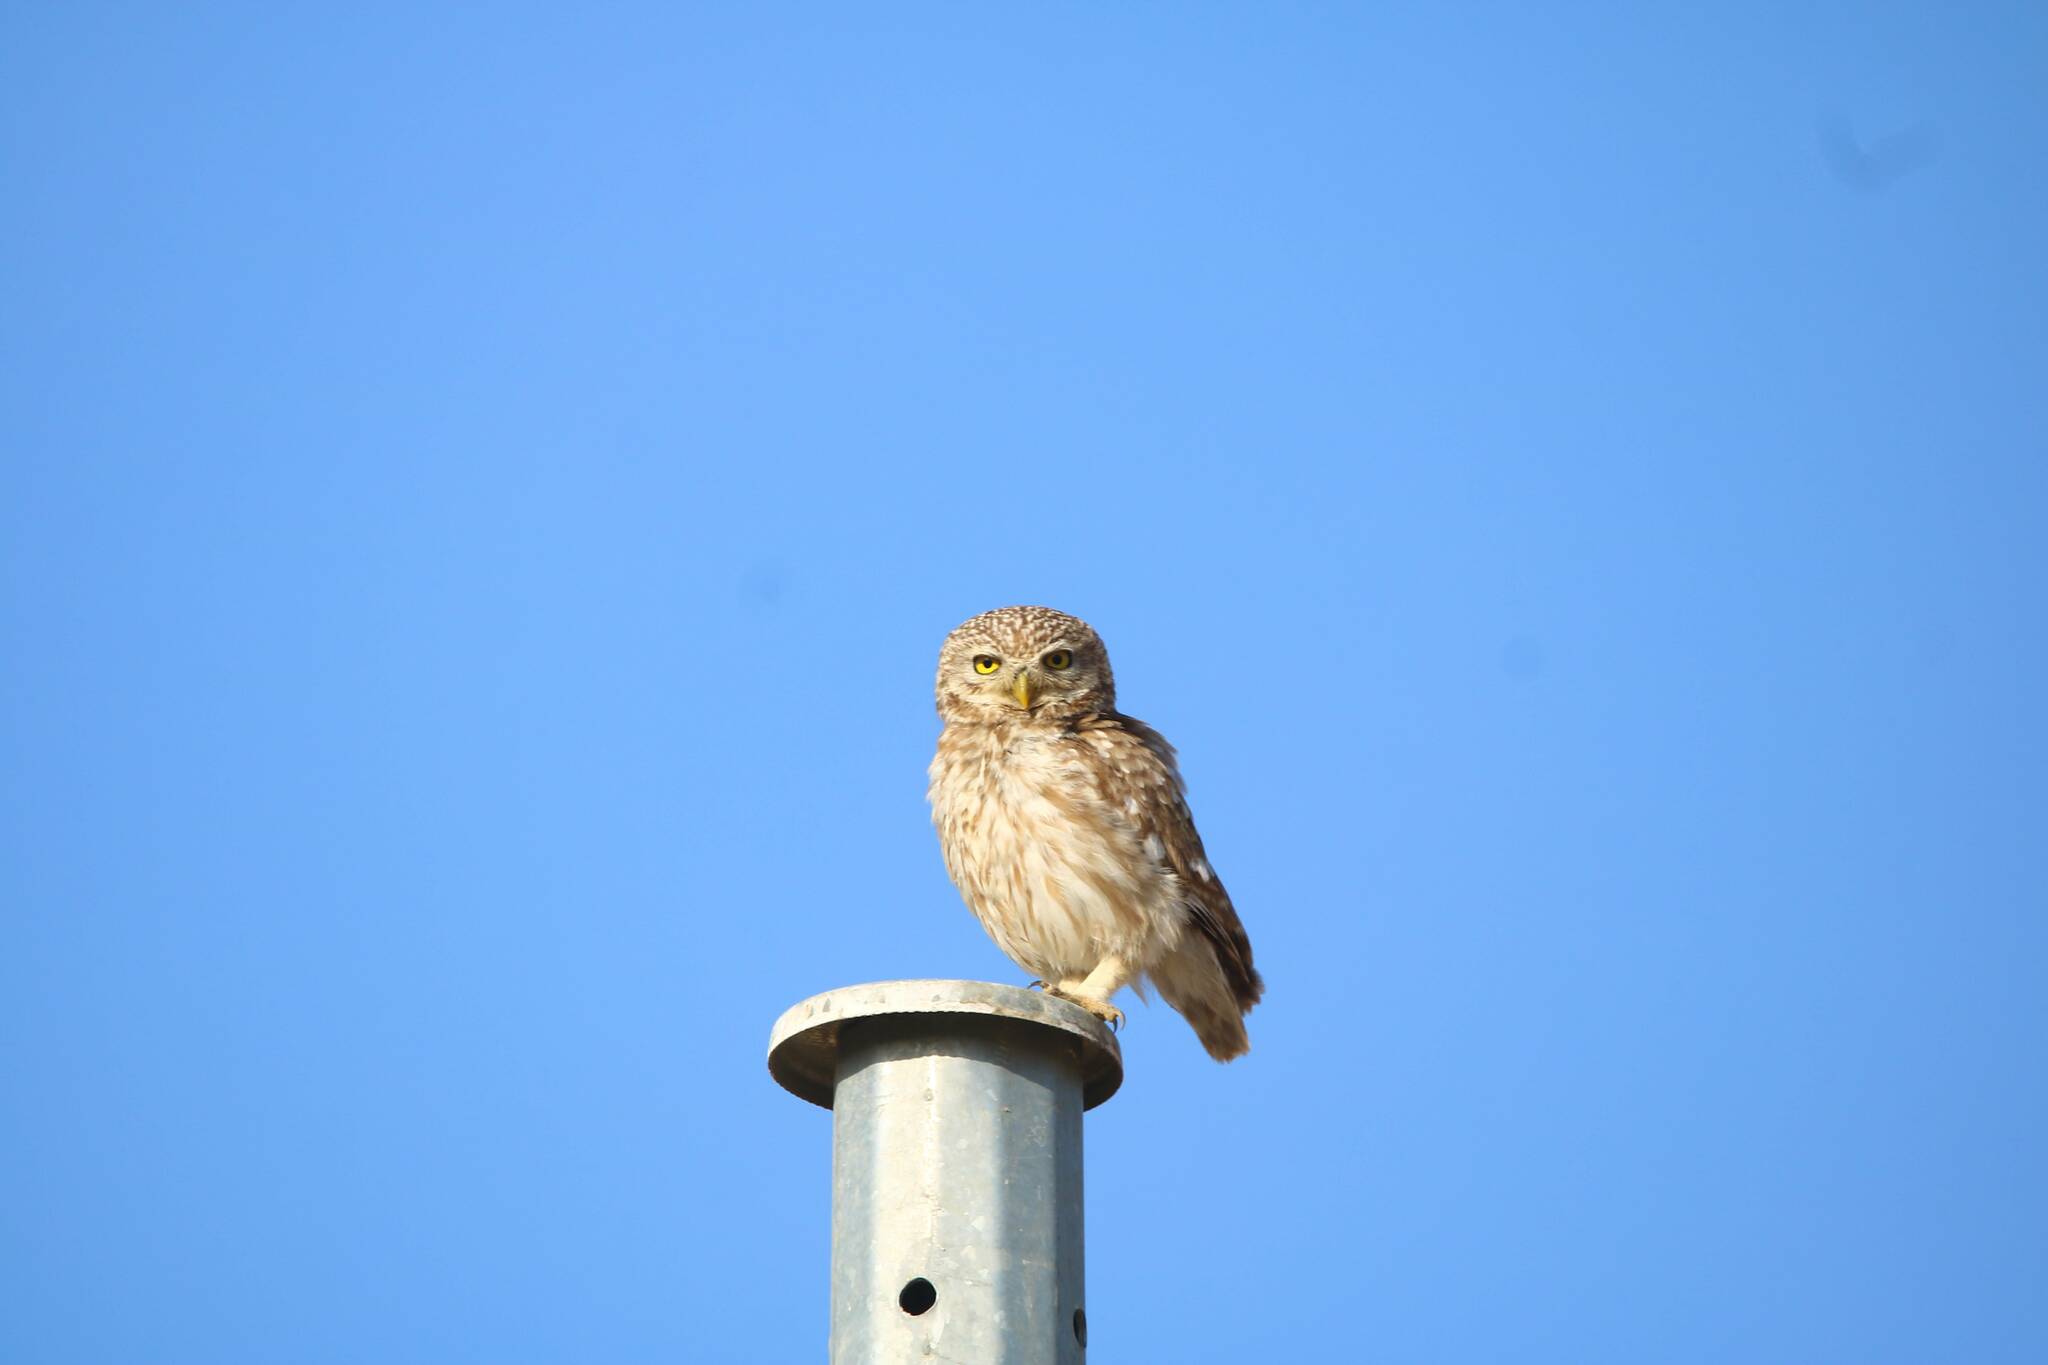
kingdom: Animalia
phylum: Chordata
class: Aves
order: Strigiformes
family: Strigidae
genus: Athene
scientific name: Athene noctua
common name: Little owl
